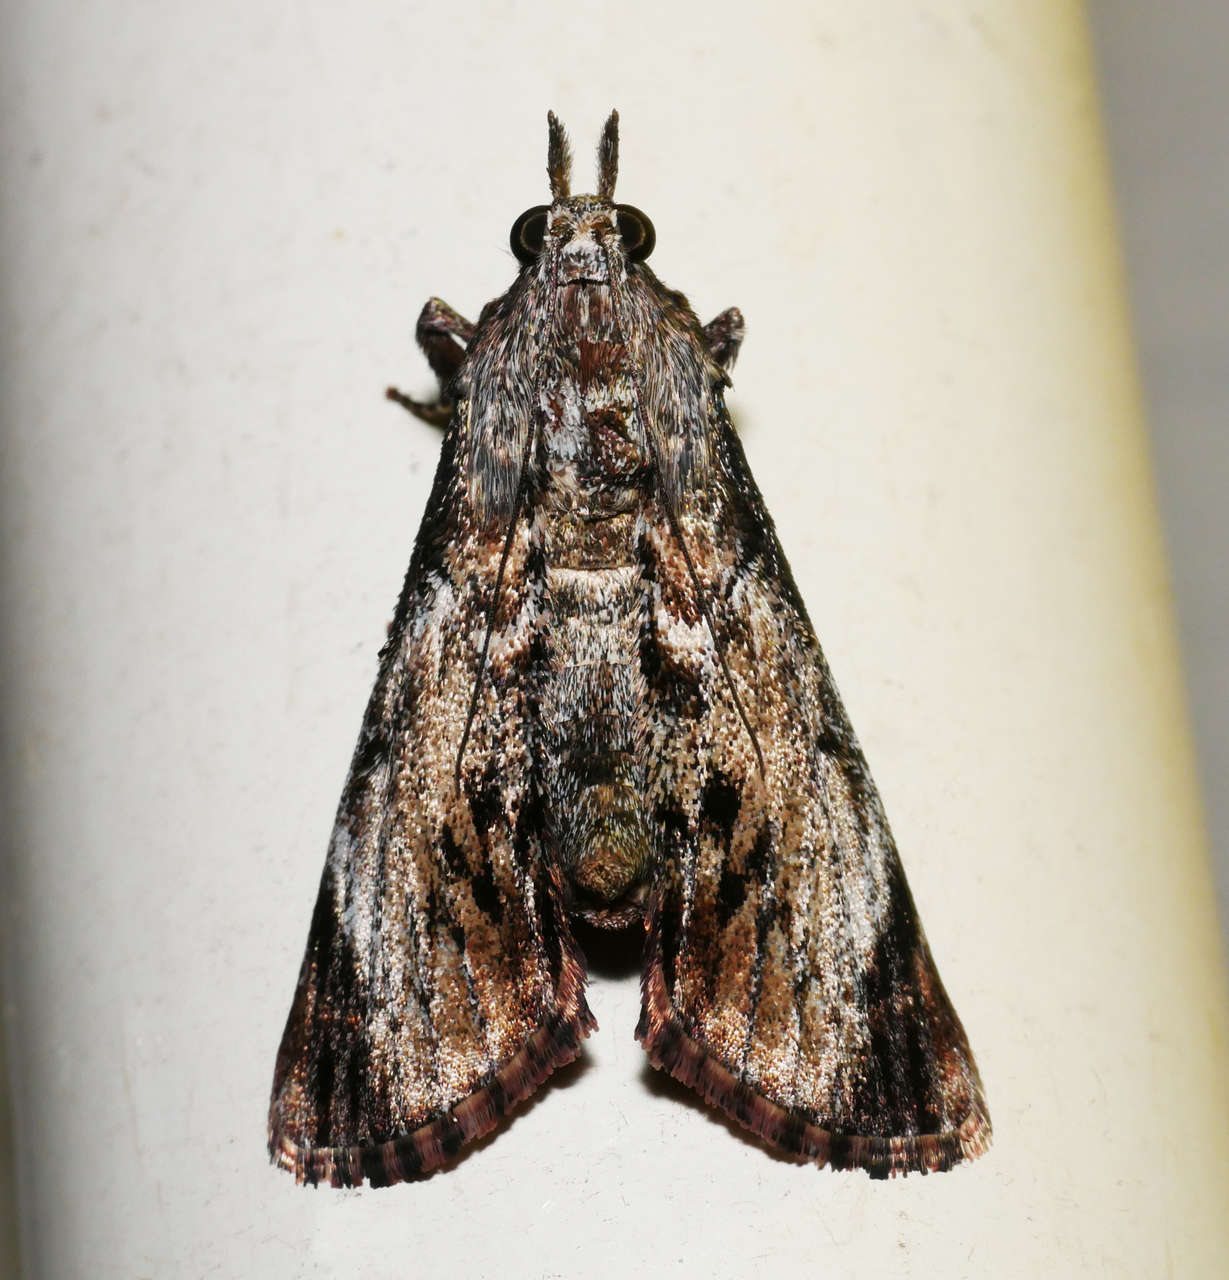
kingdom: Animalia
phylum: Arthropoda
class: Insecta
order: Lepidoptera
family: Pyralidae
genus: Salma
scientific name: Salma pyrastis
